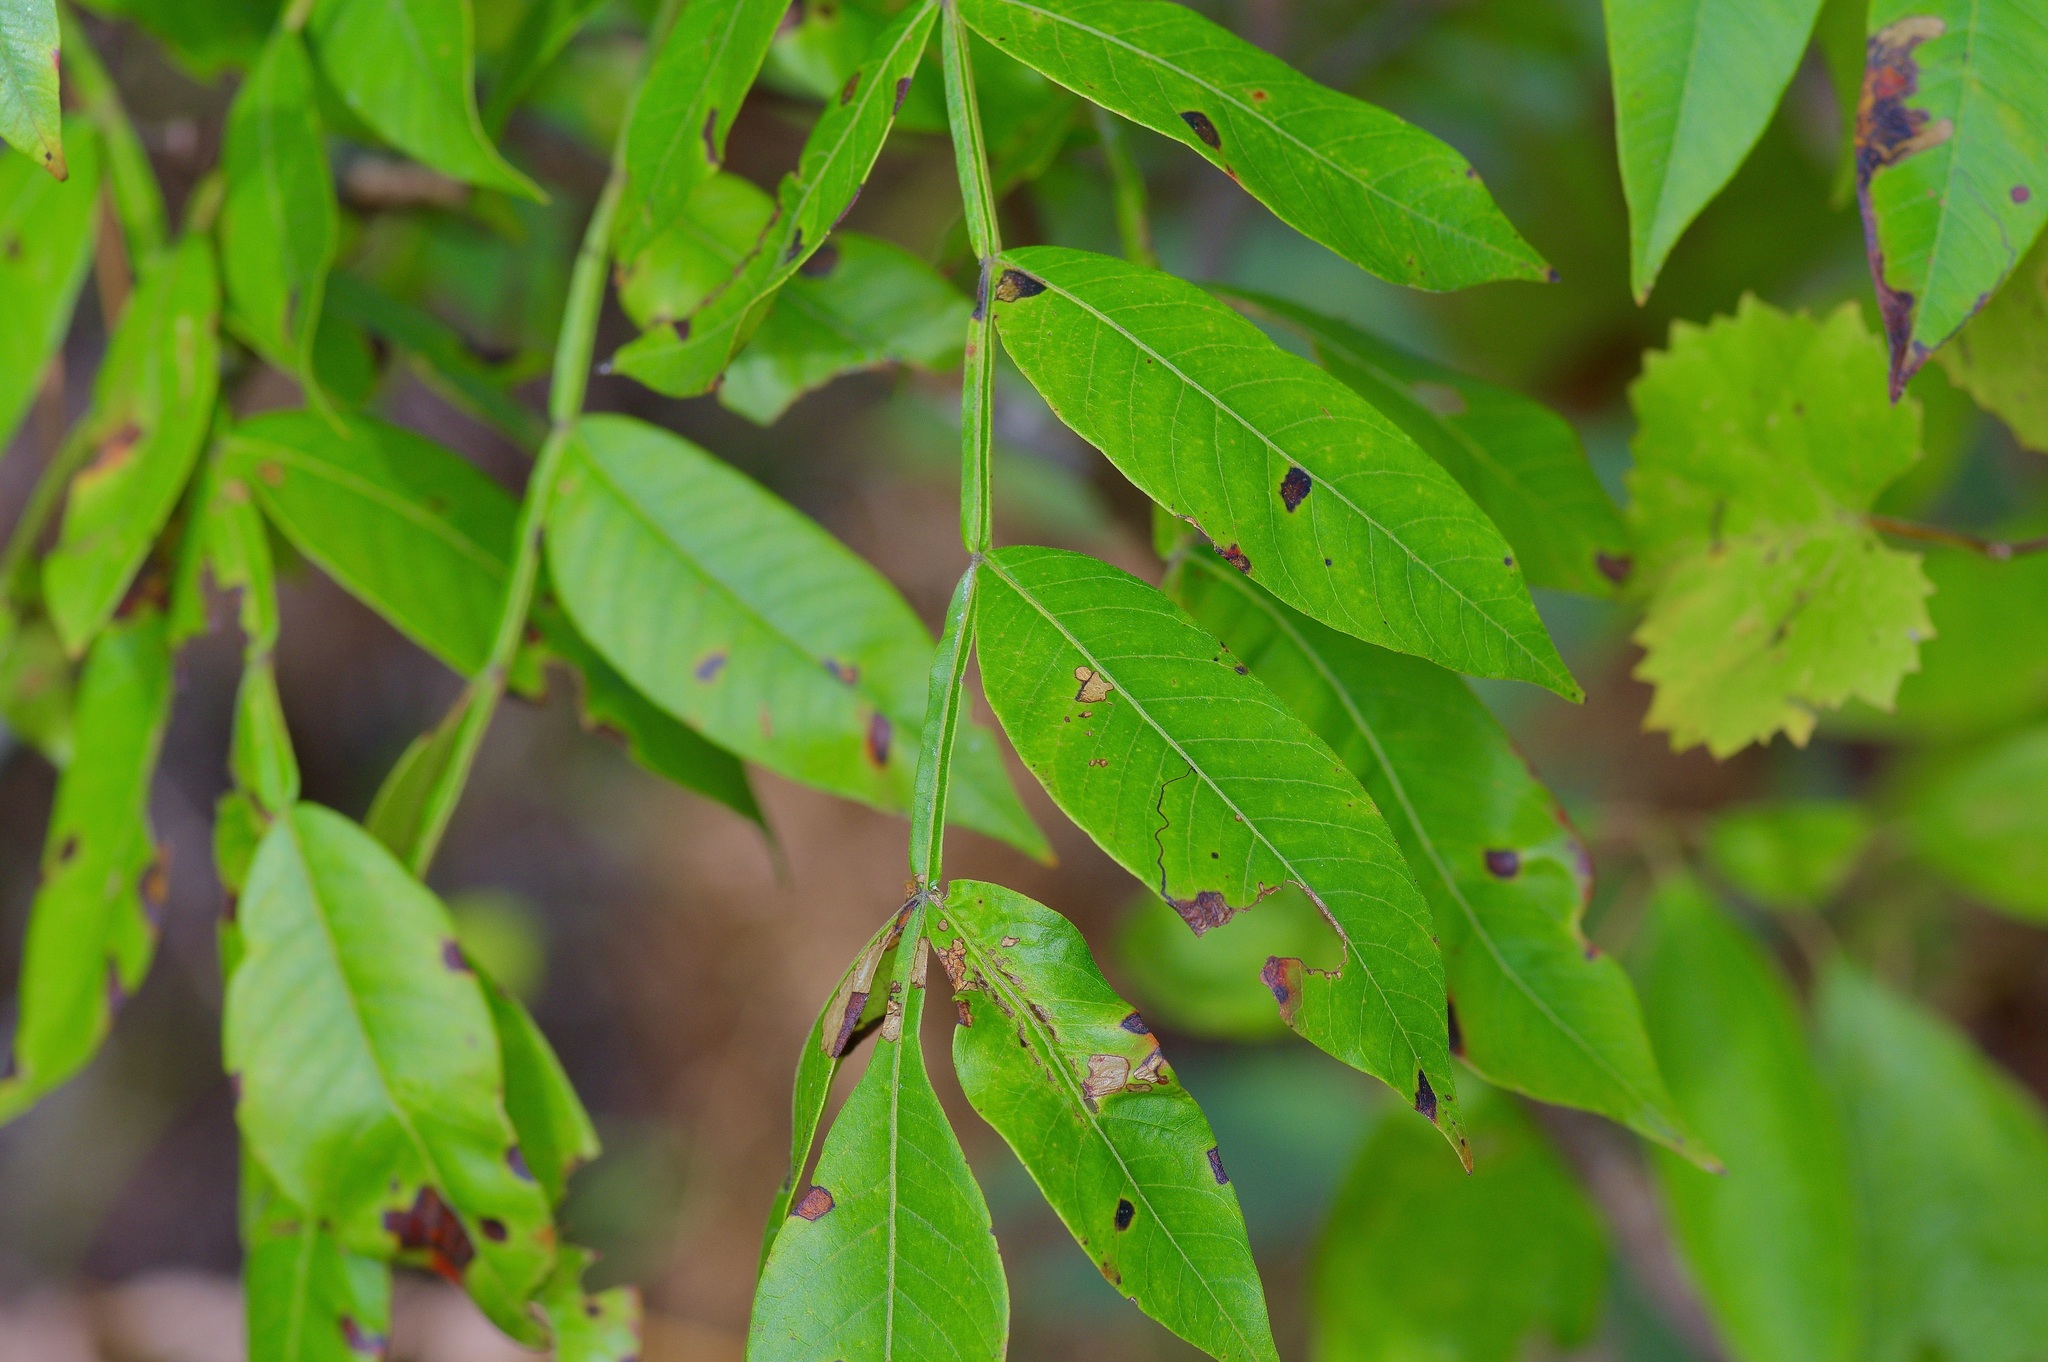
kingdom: Plantae
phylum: Tracheophyta
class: Magnoliopsida
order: Sapindales
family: Anacardiaceae
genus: Rhus
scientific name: Rhus copallina
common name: Shining sumac
